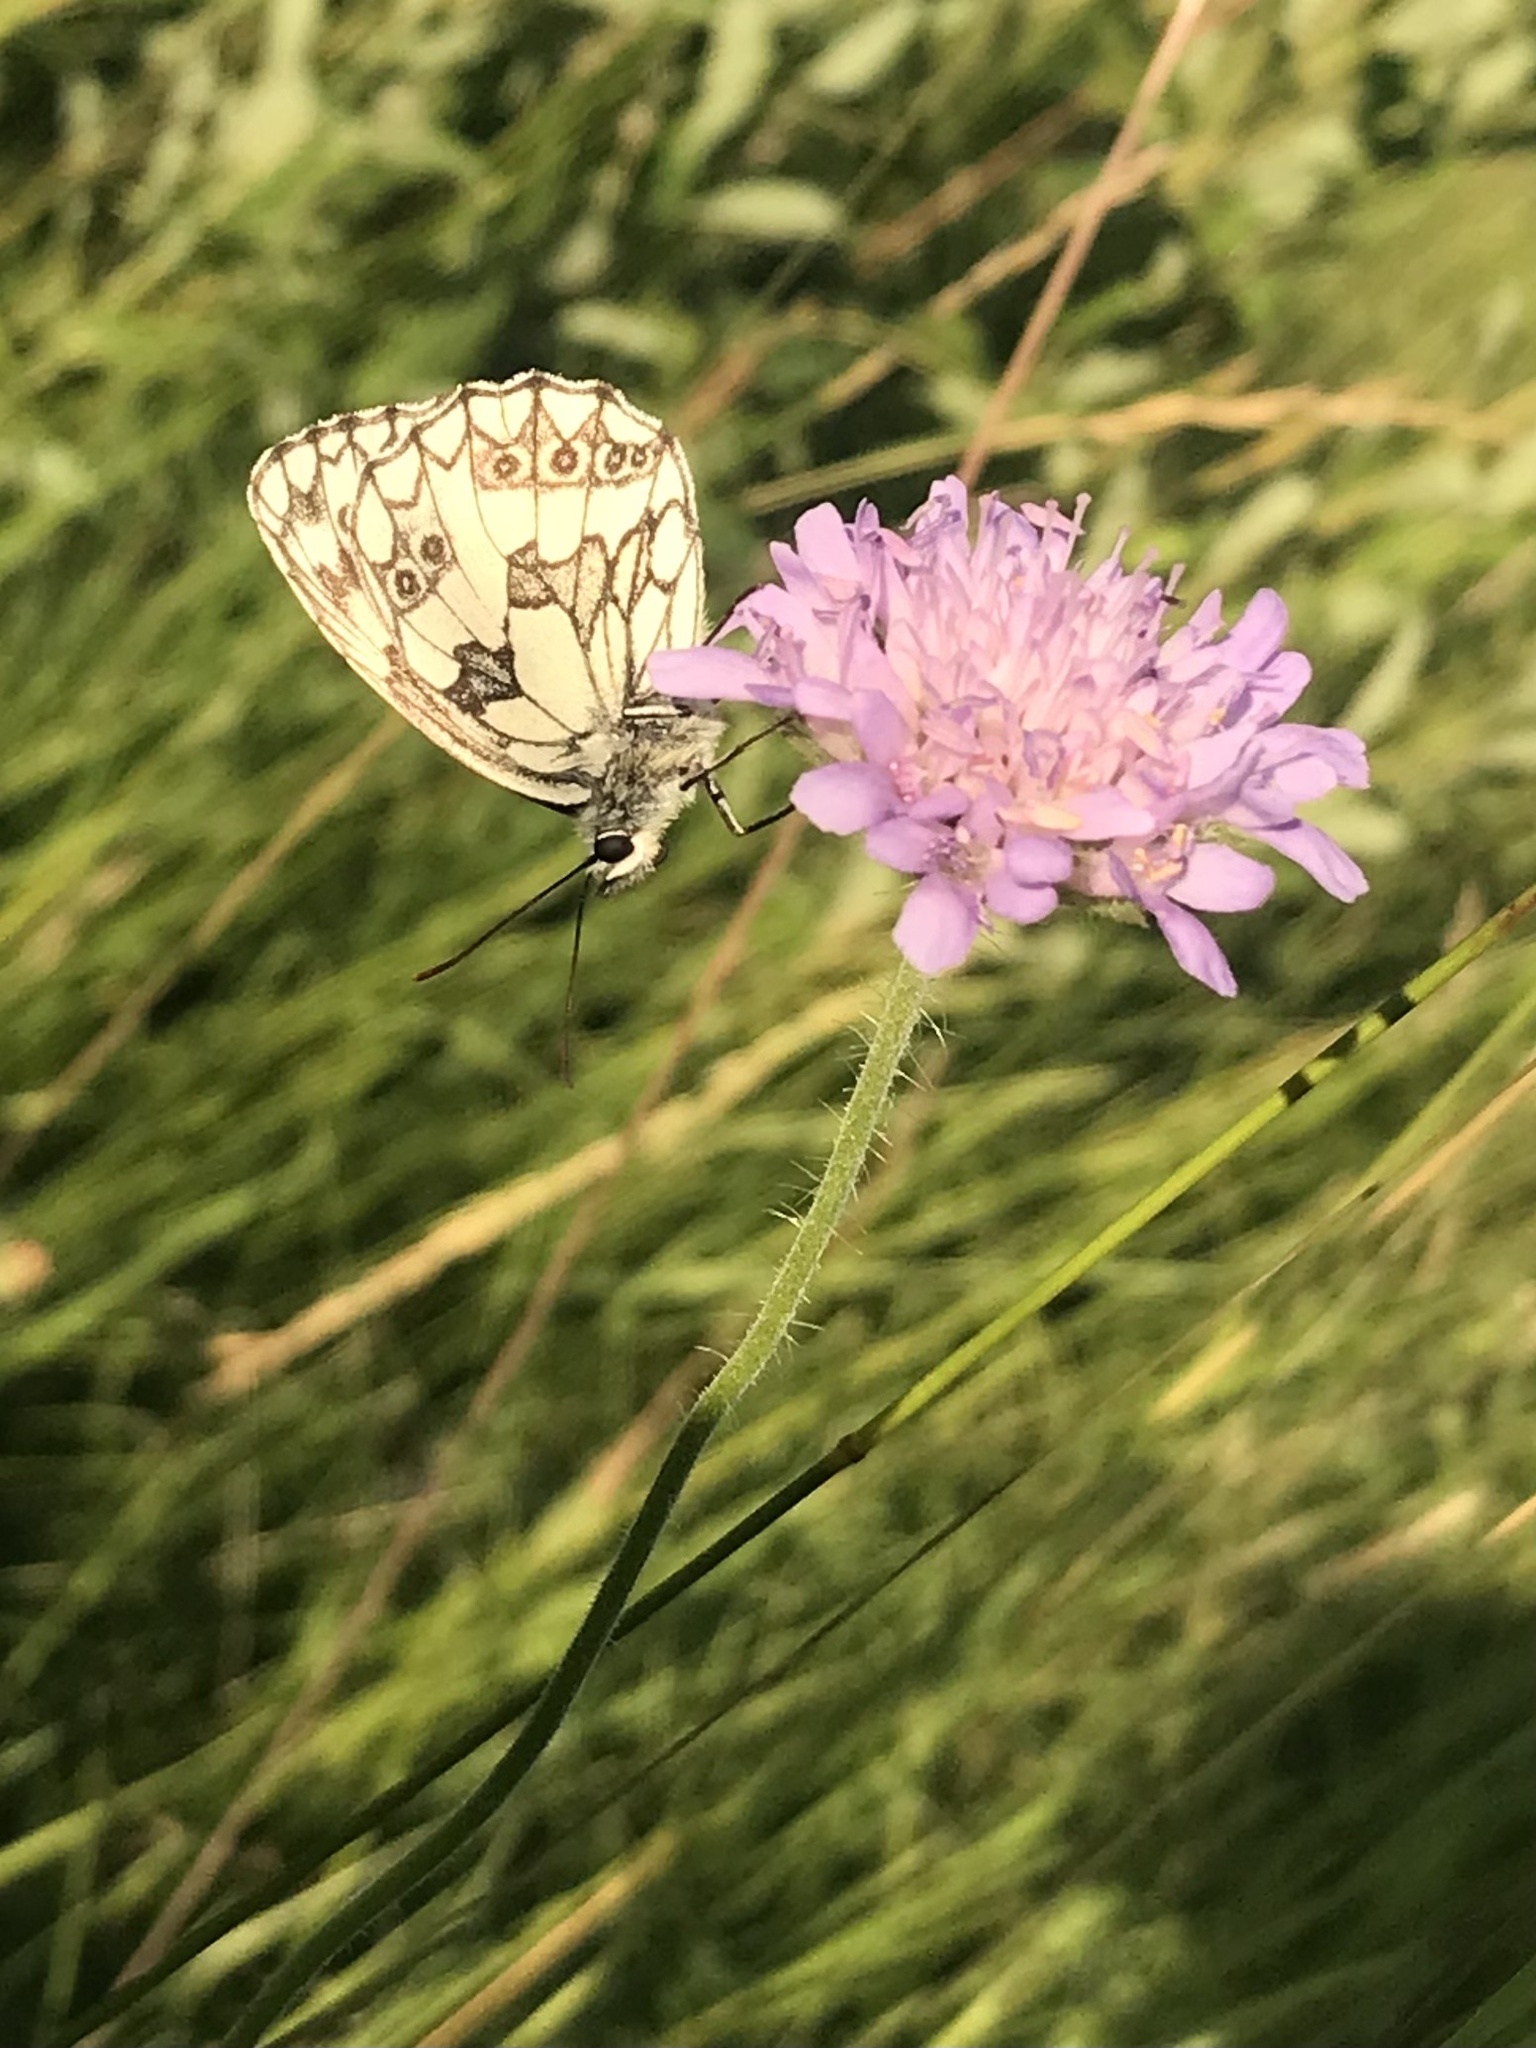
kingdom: Animalia
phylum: Arthropoda
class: Insecta
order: Lepidoptera
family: Nymphalidae
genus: Melanargia
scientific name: Melanargia galathea
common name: Marbled white
